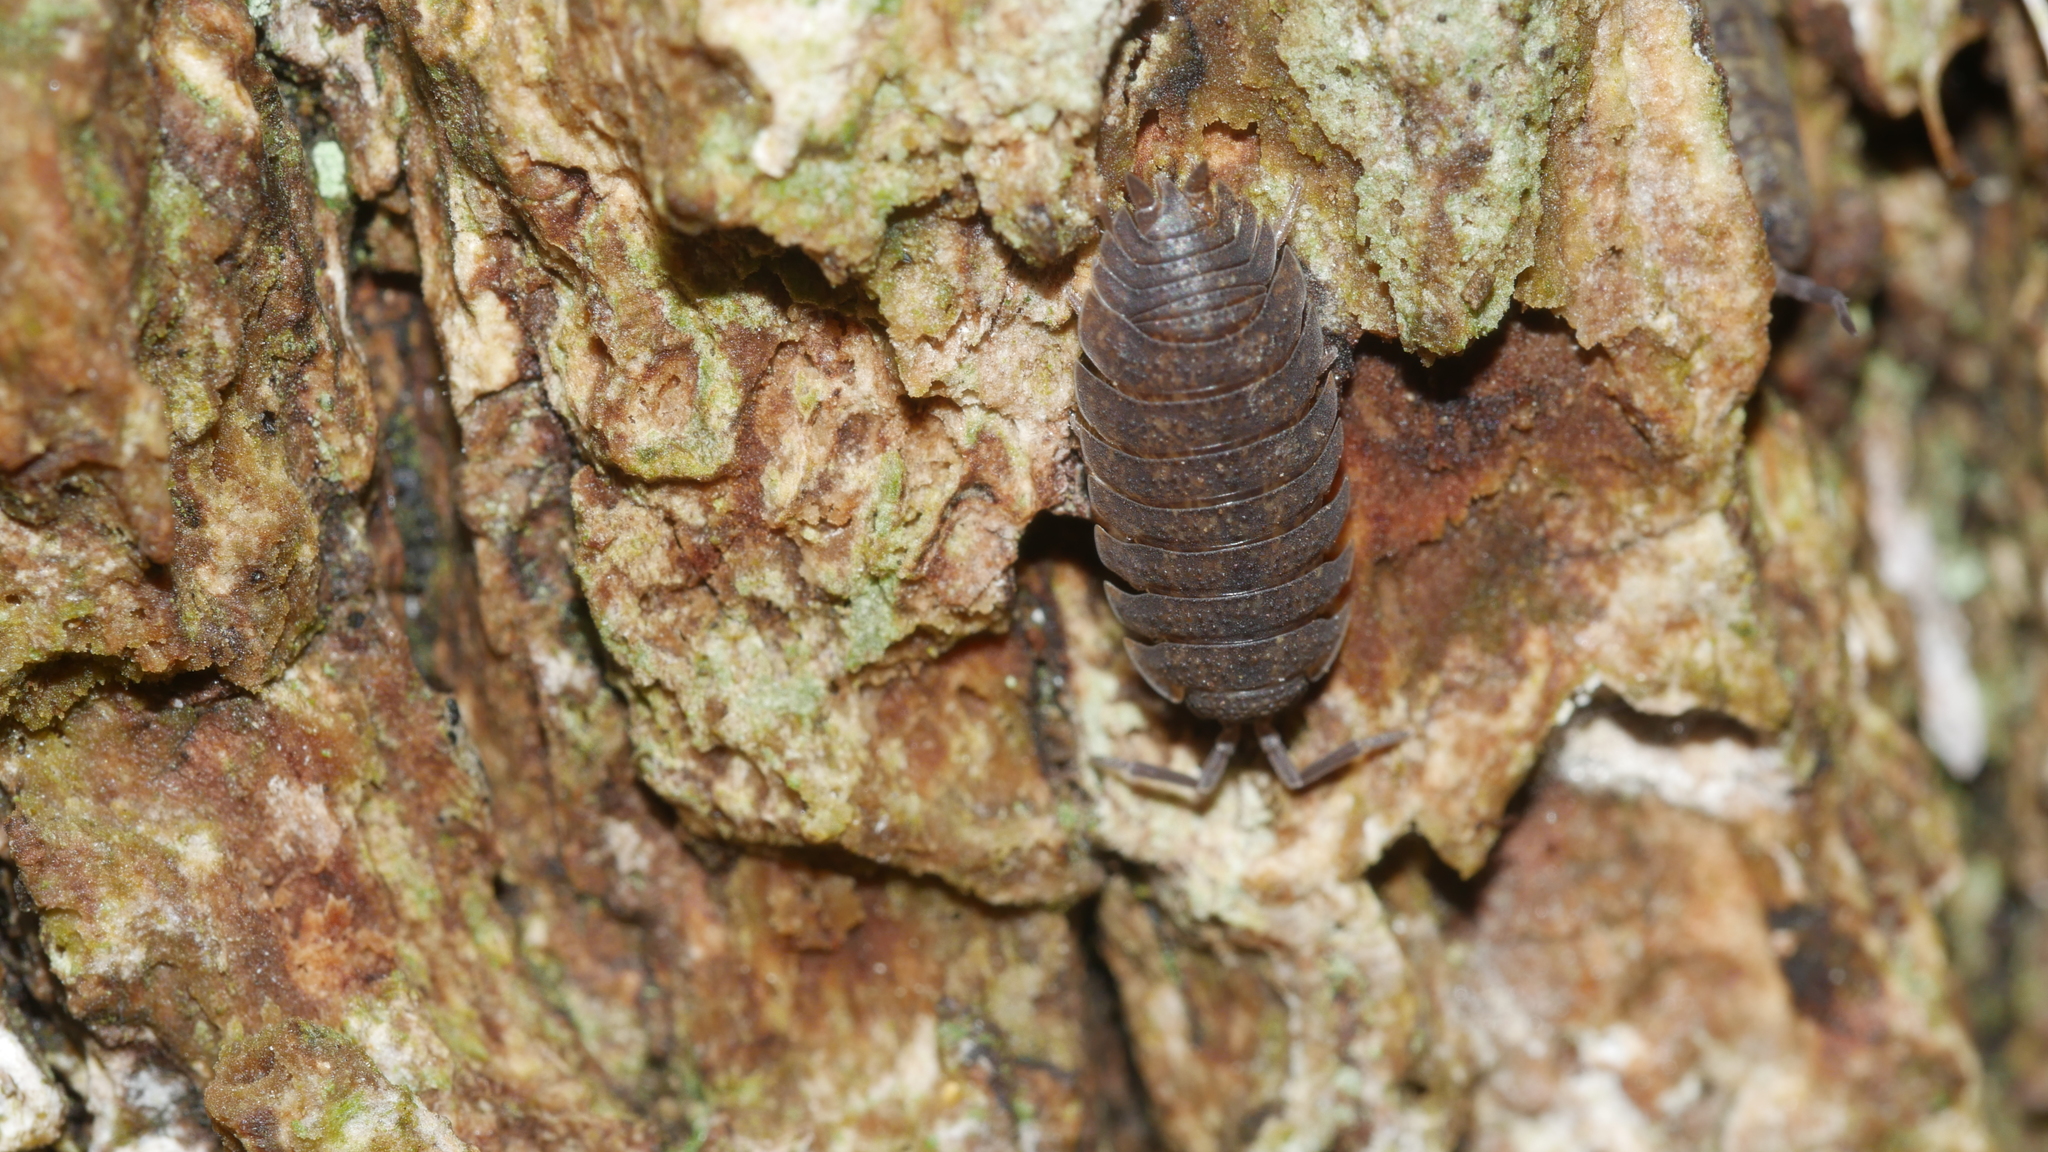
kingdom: Animalia
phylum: Arthropoda
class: Malacostraca
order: Isopoda
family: Porcellionidae
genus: Porcellio
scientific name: Porcellio scaber
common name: Common rough woodlouse
